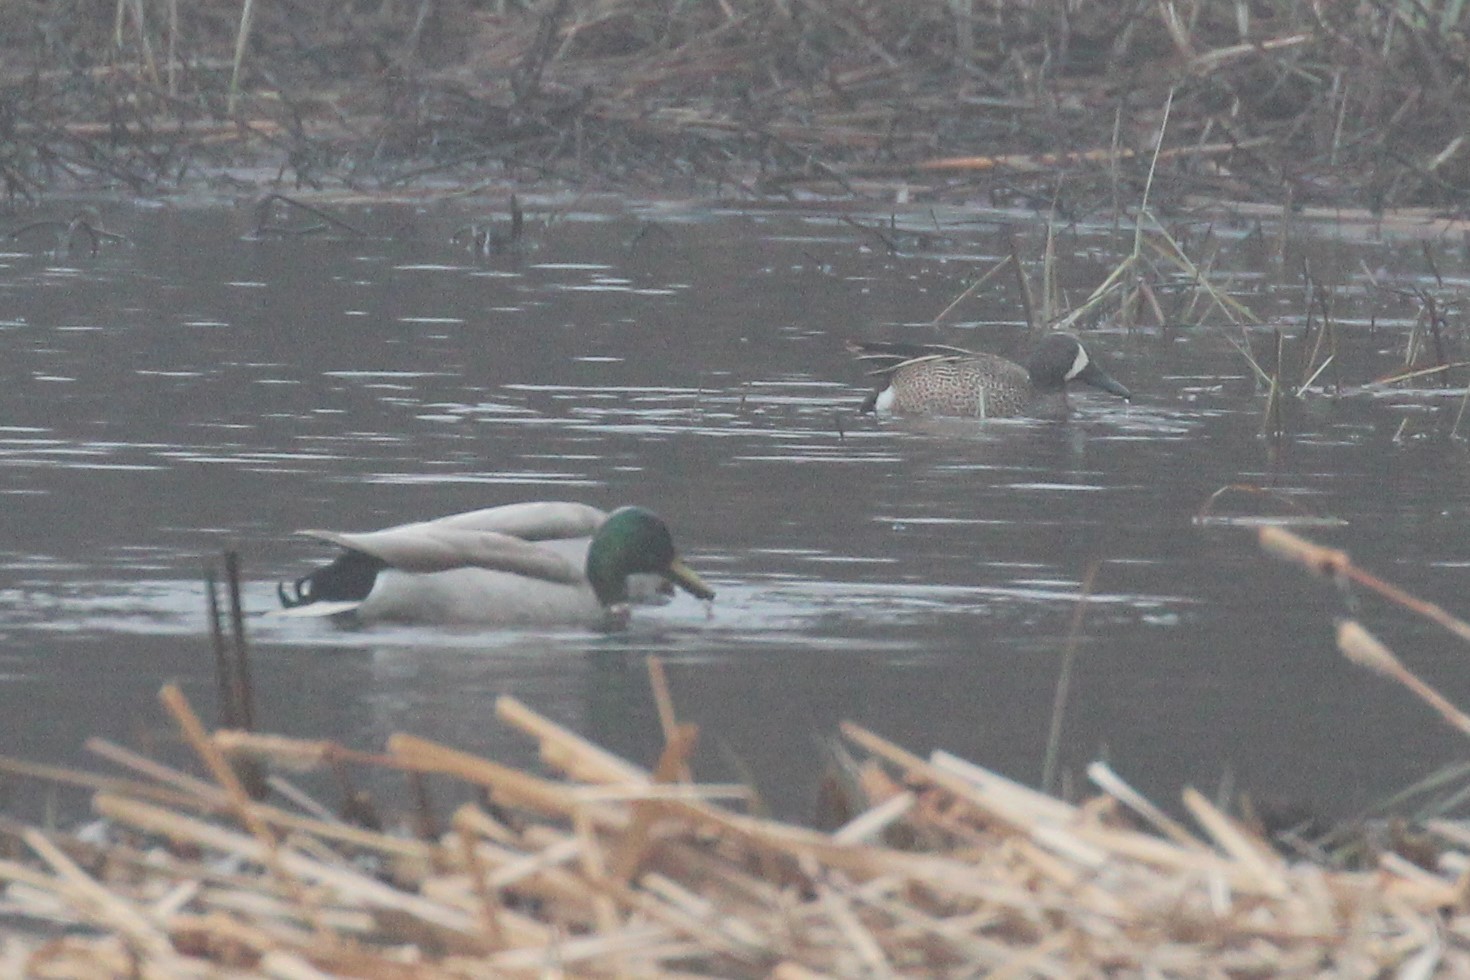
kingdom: Animalia
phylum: Chordata
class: Aves
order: Anseriformes
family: Anatidae
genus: Anas
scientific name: Anas platyrhynchos
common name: Mallard
